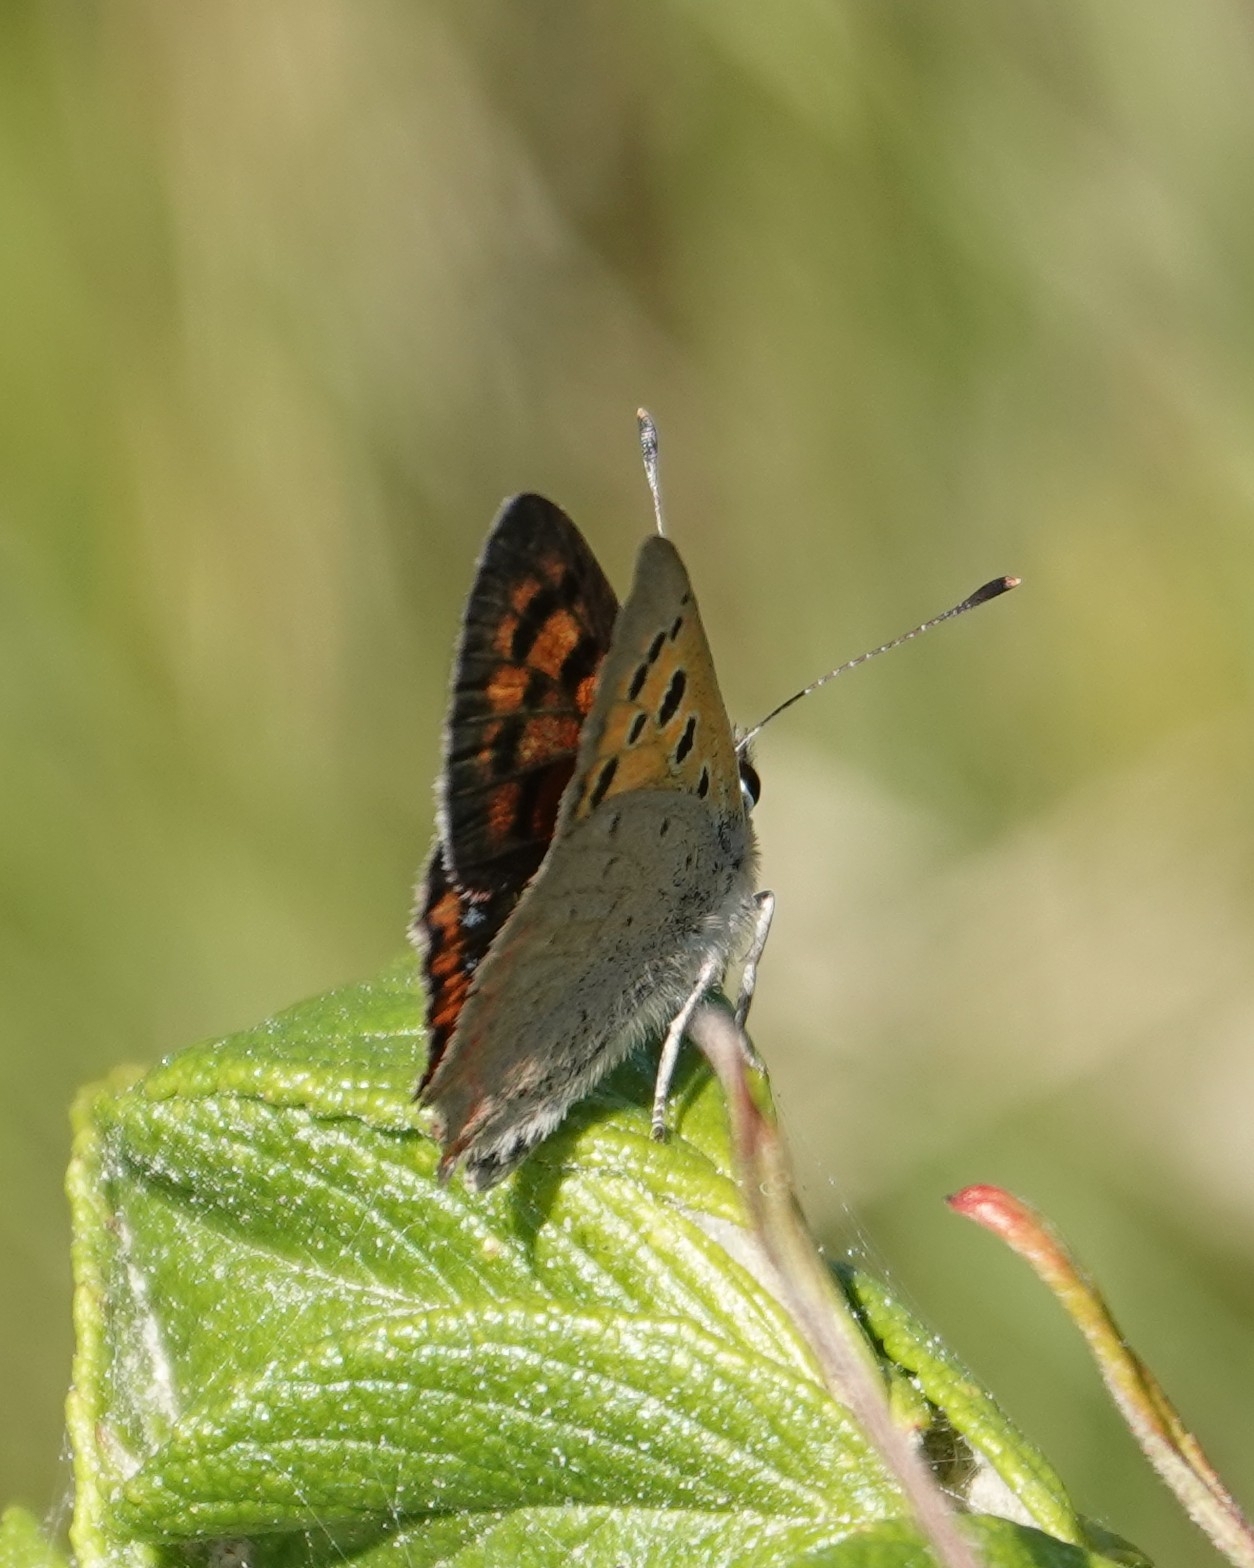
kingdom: Animalia
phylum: Arthropoda
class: Insecta
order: Lepidoptera
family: Lycaenidae
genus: Lycaena
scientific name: Lycaena phlaeas
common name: Small copper
